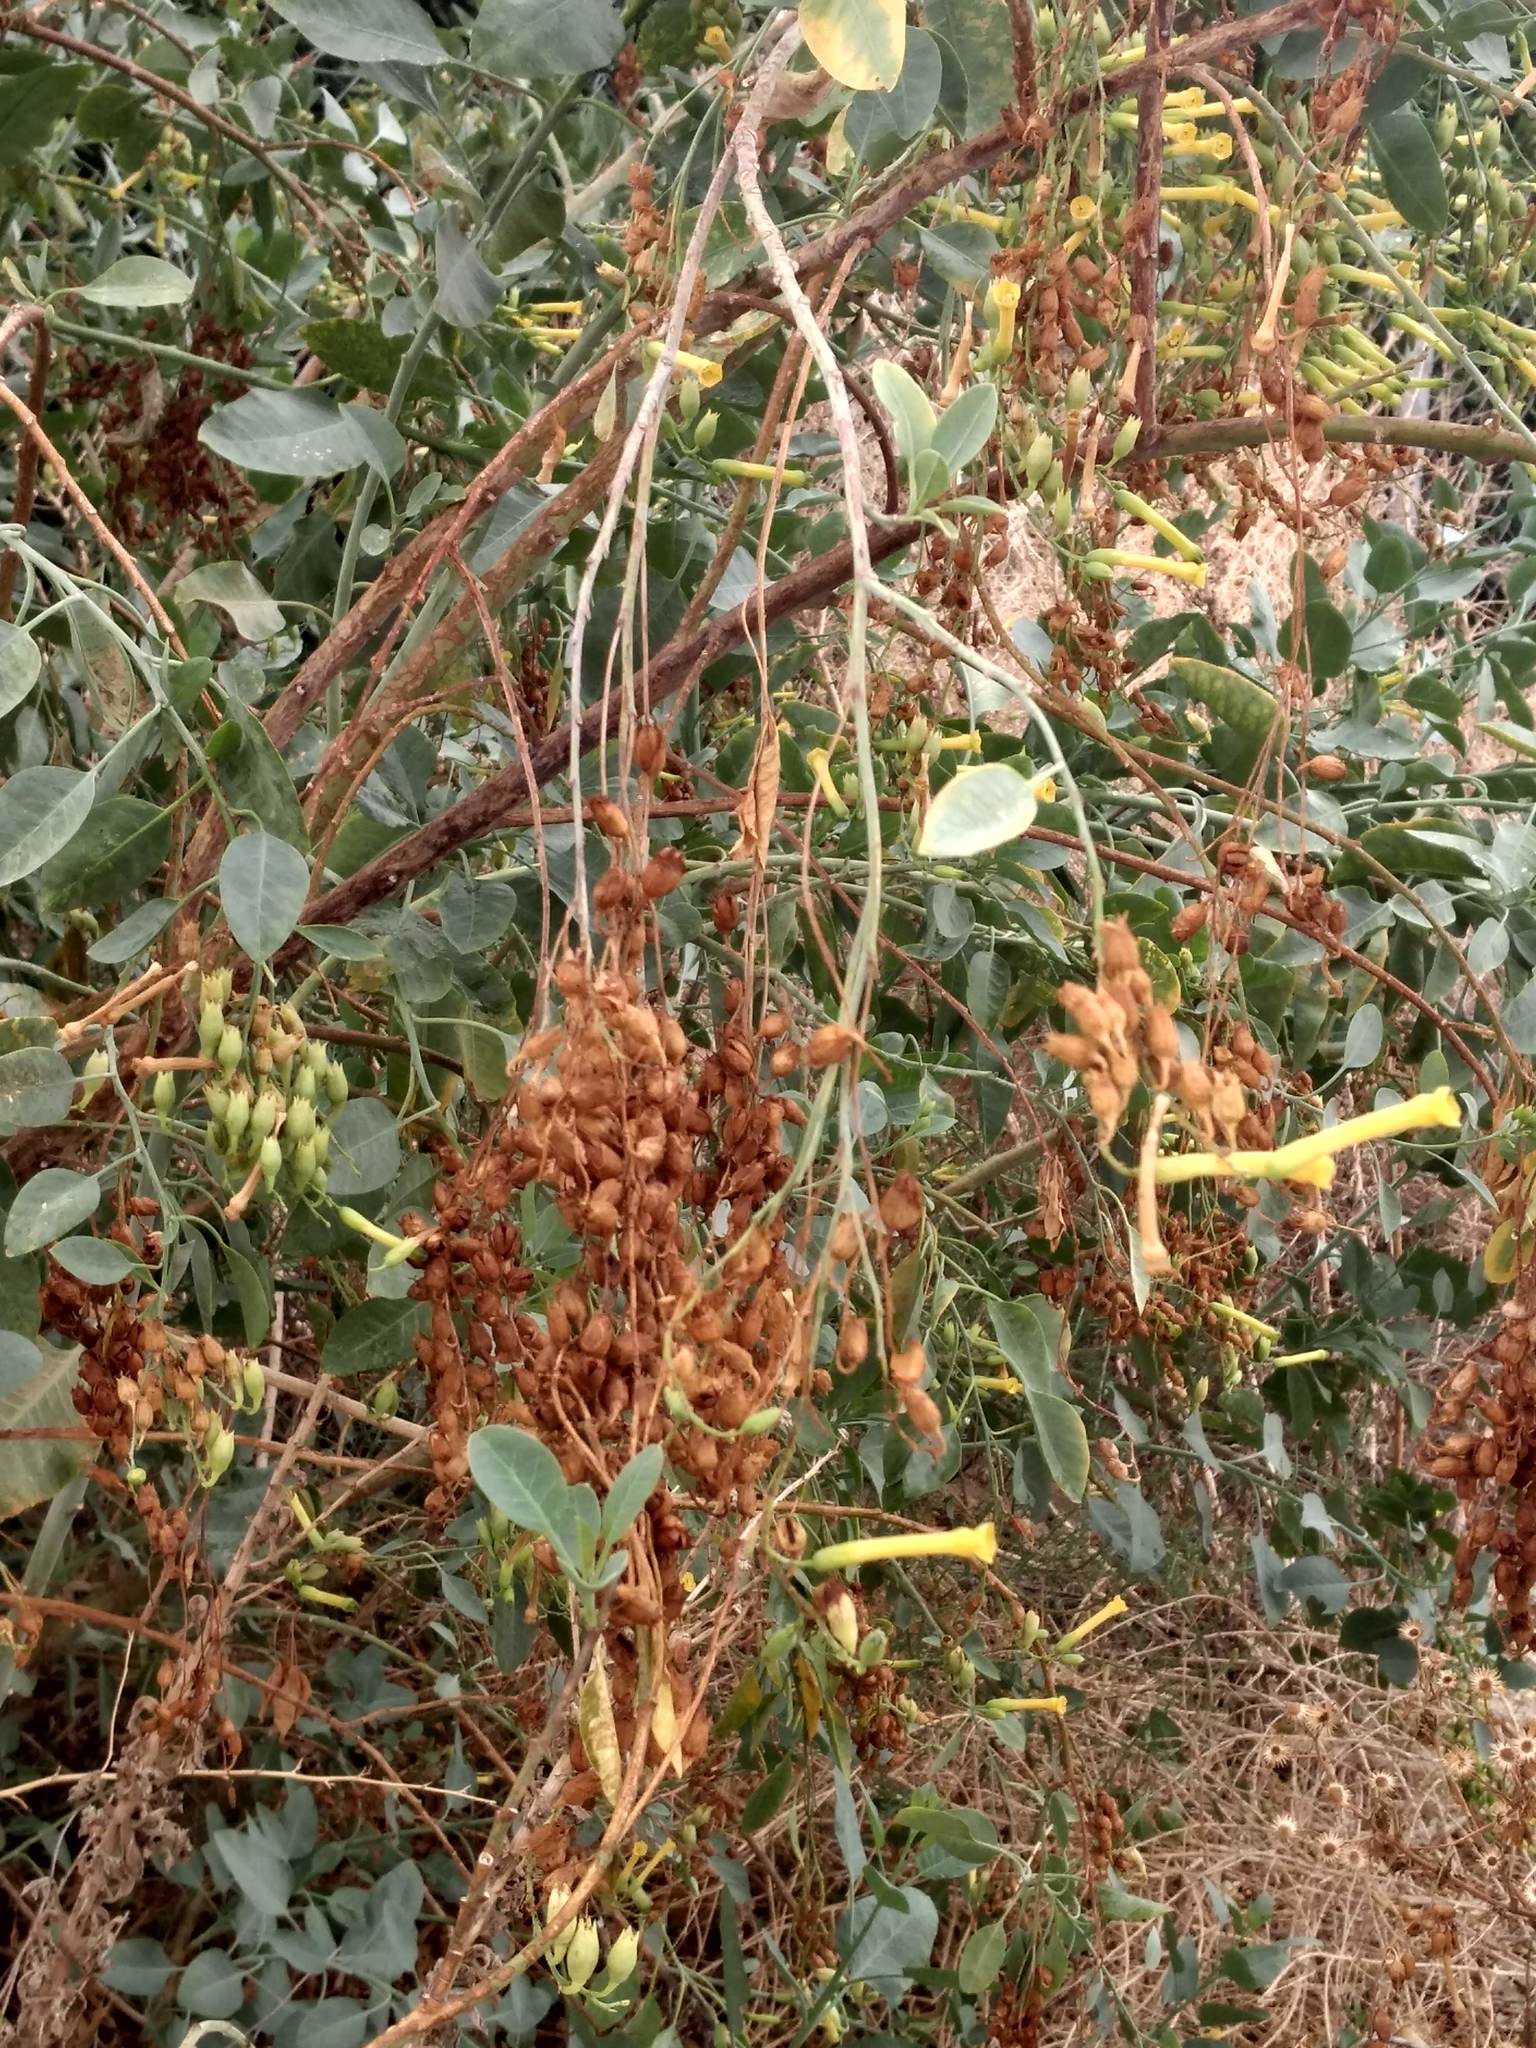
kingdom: Plantae
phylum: Tracheophyta
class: Magnoliopsida
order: Solanales
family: Solanaceae
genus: Nicotiana
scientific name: Nicotiana glauca
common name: Tree tobacco
